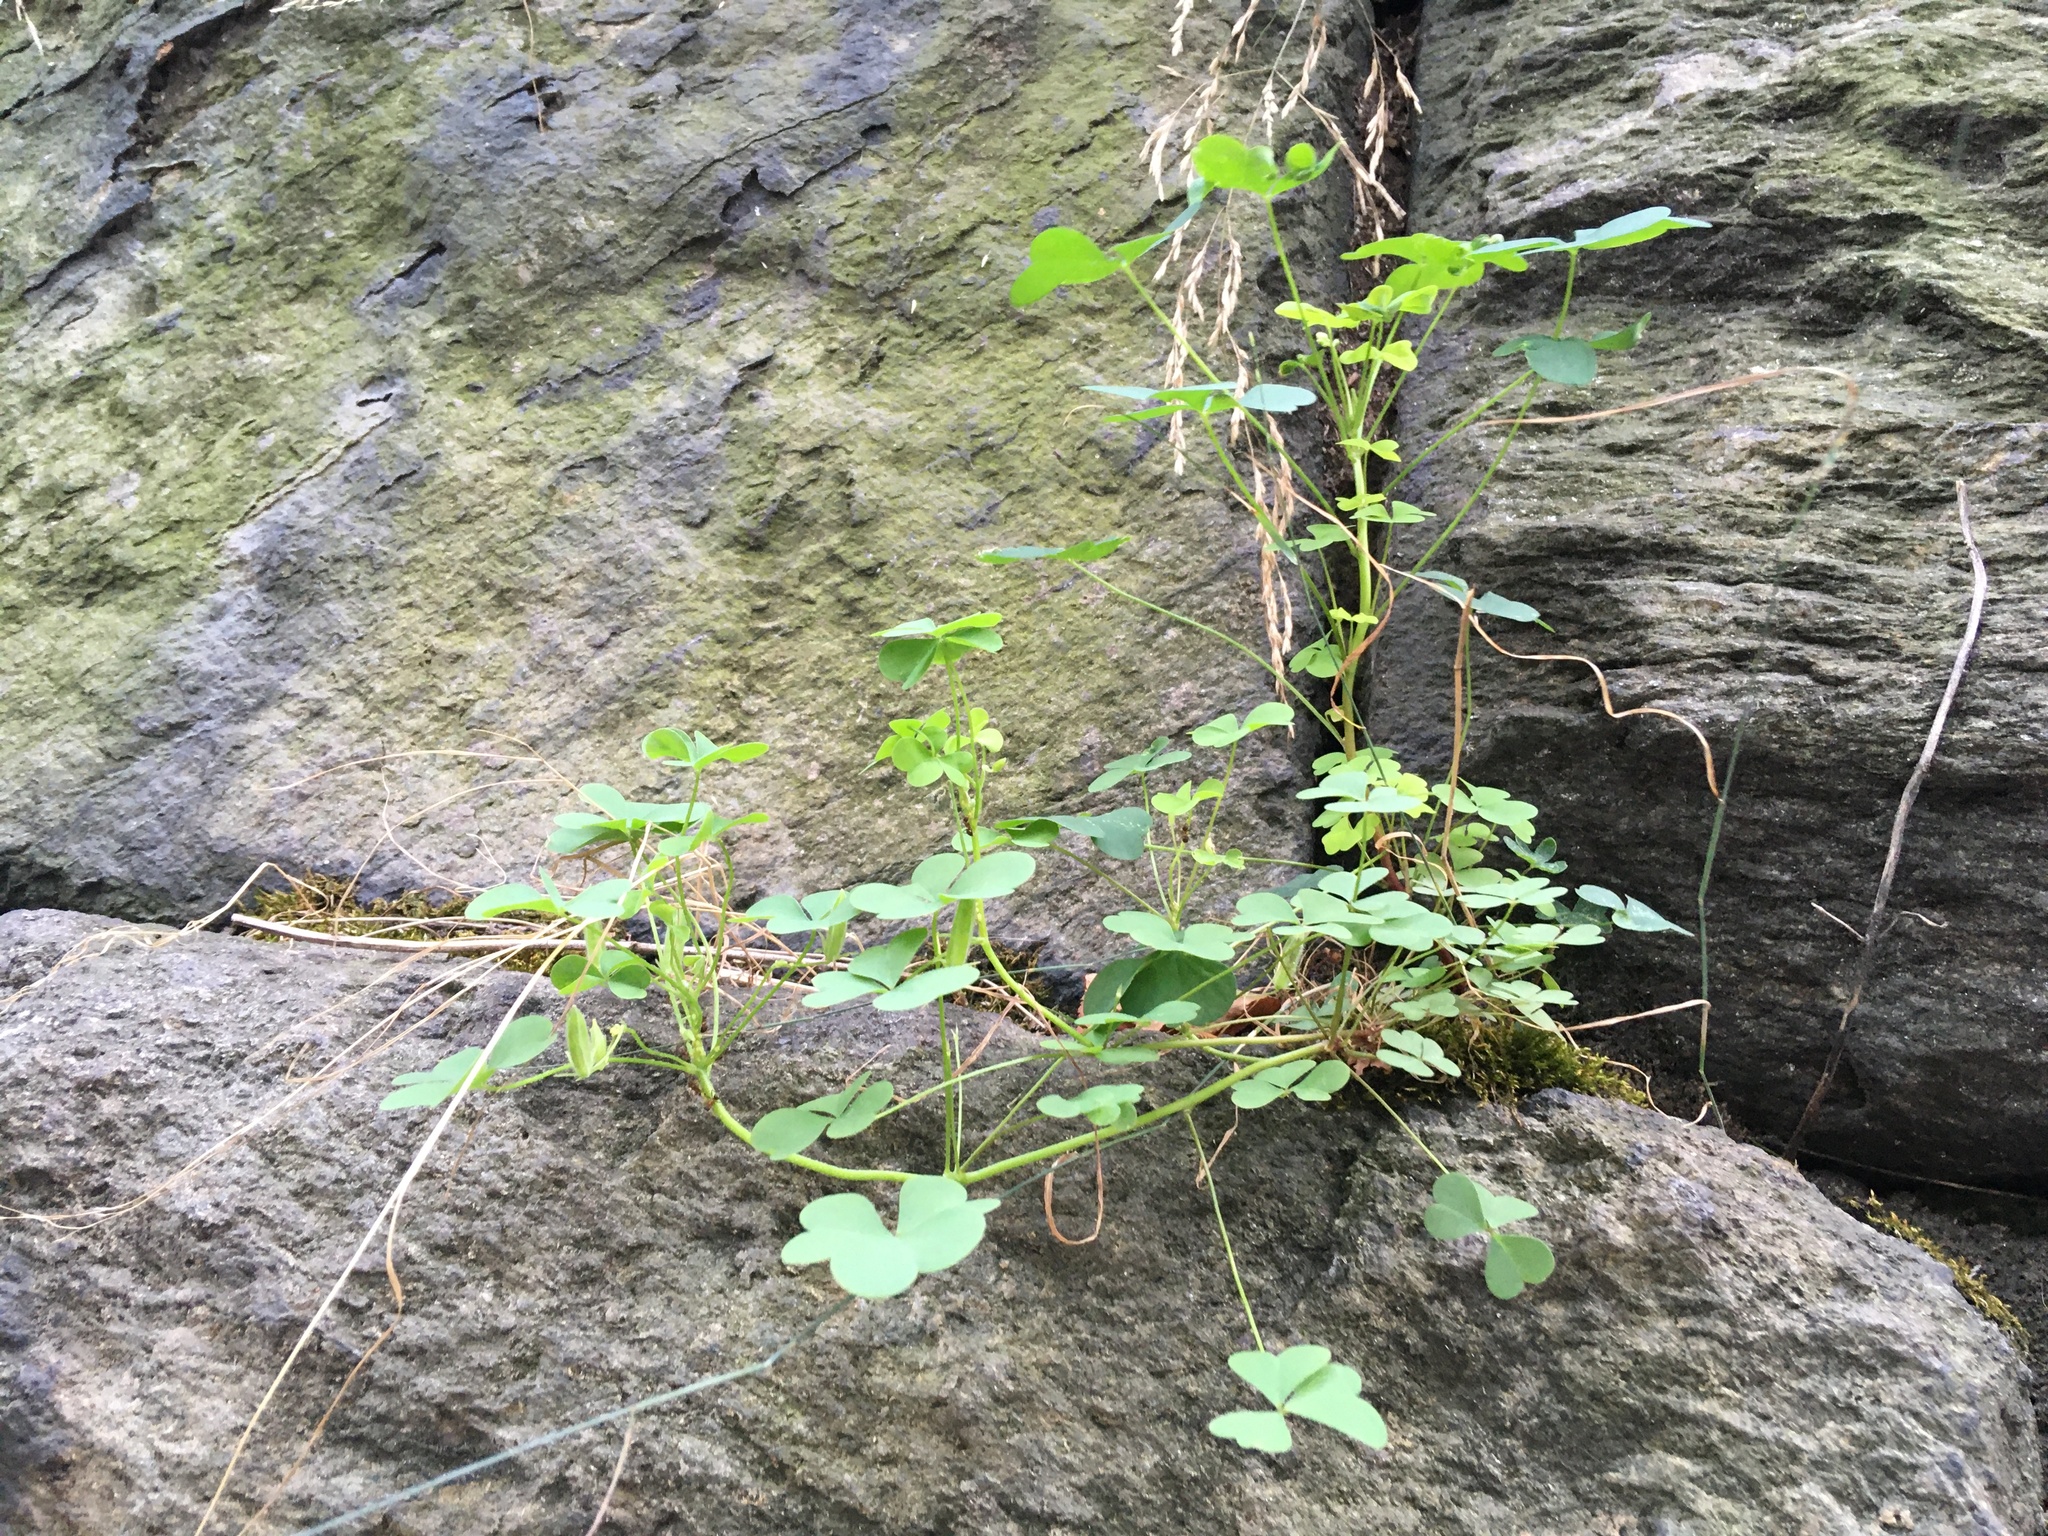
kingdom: Plantae
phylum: Tracheophyta
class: Magnoliopsida
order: Oxalidales
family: Oxalidaceae
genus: Oxalis
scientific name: Oxalis corniculata
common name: Procumbent yellow-sorrel
